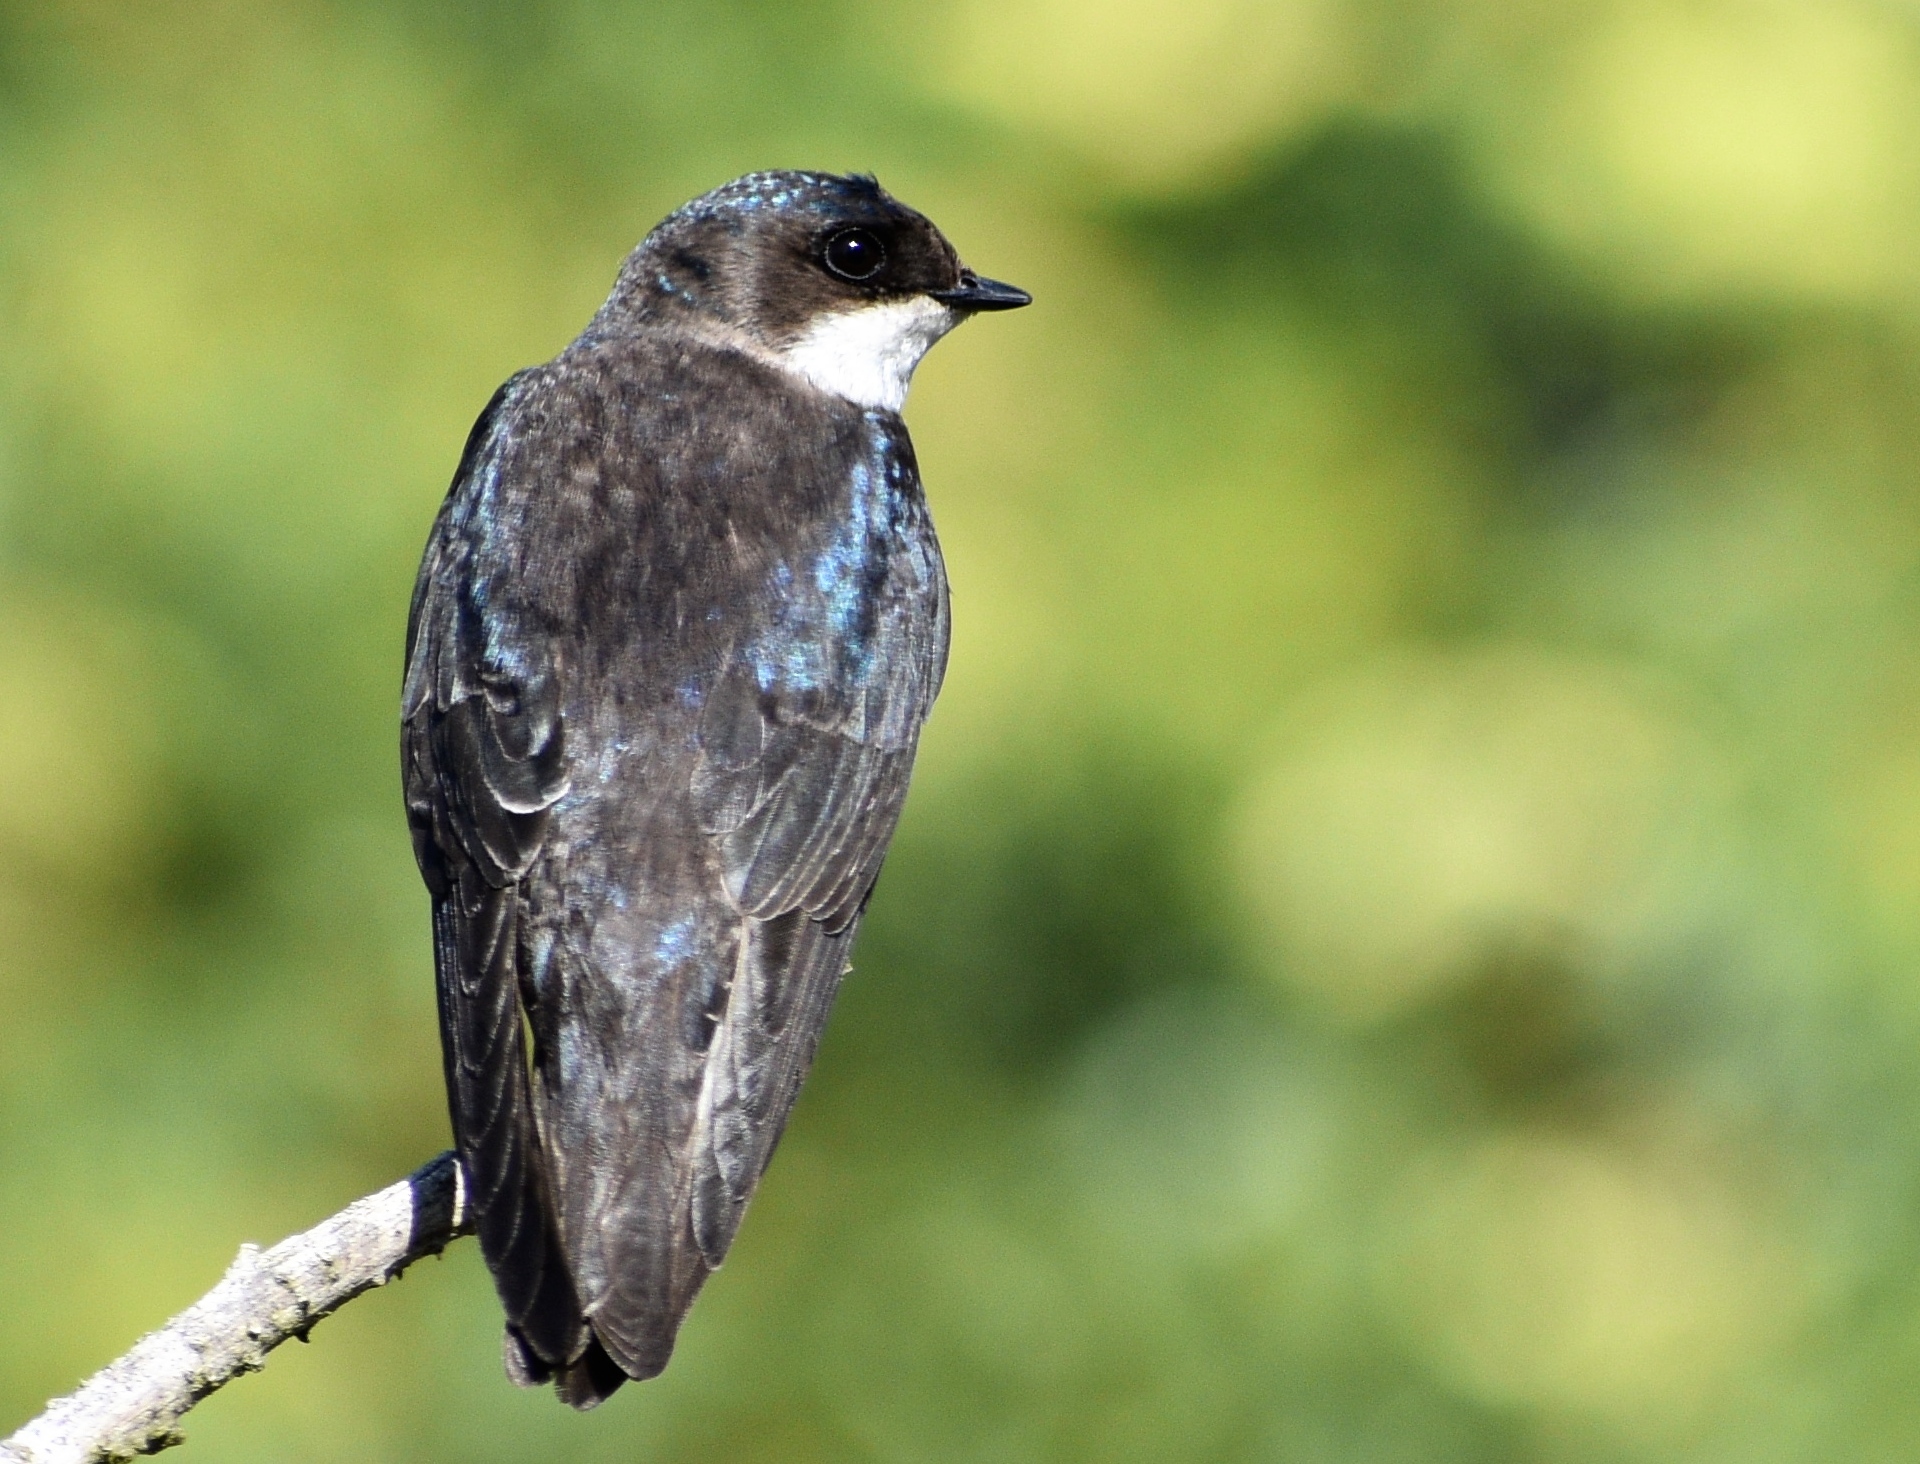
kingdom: Animalia
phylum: Chordata
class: Aves
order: Passeriformes
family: Hirundinidae
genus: Tachycineta
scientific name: Tachycineta bicolor
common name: Tree swallow
